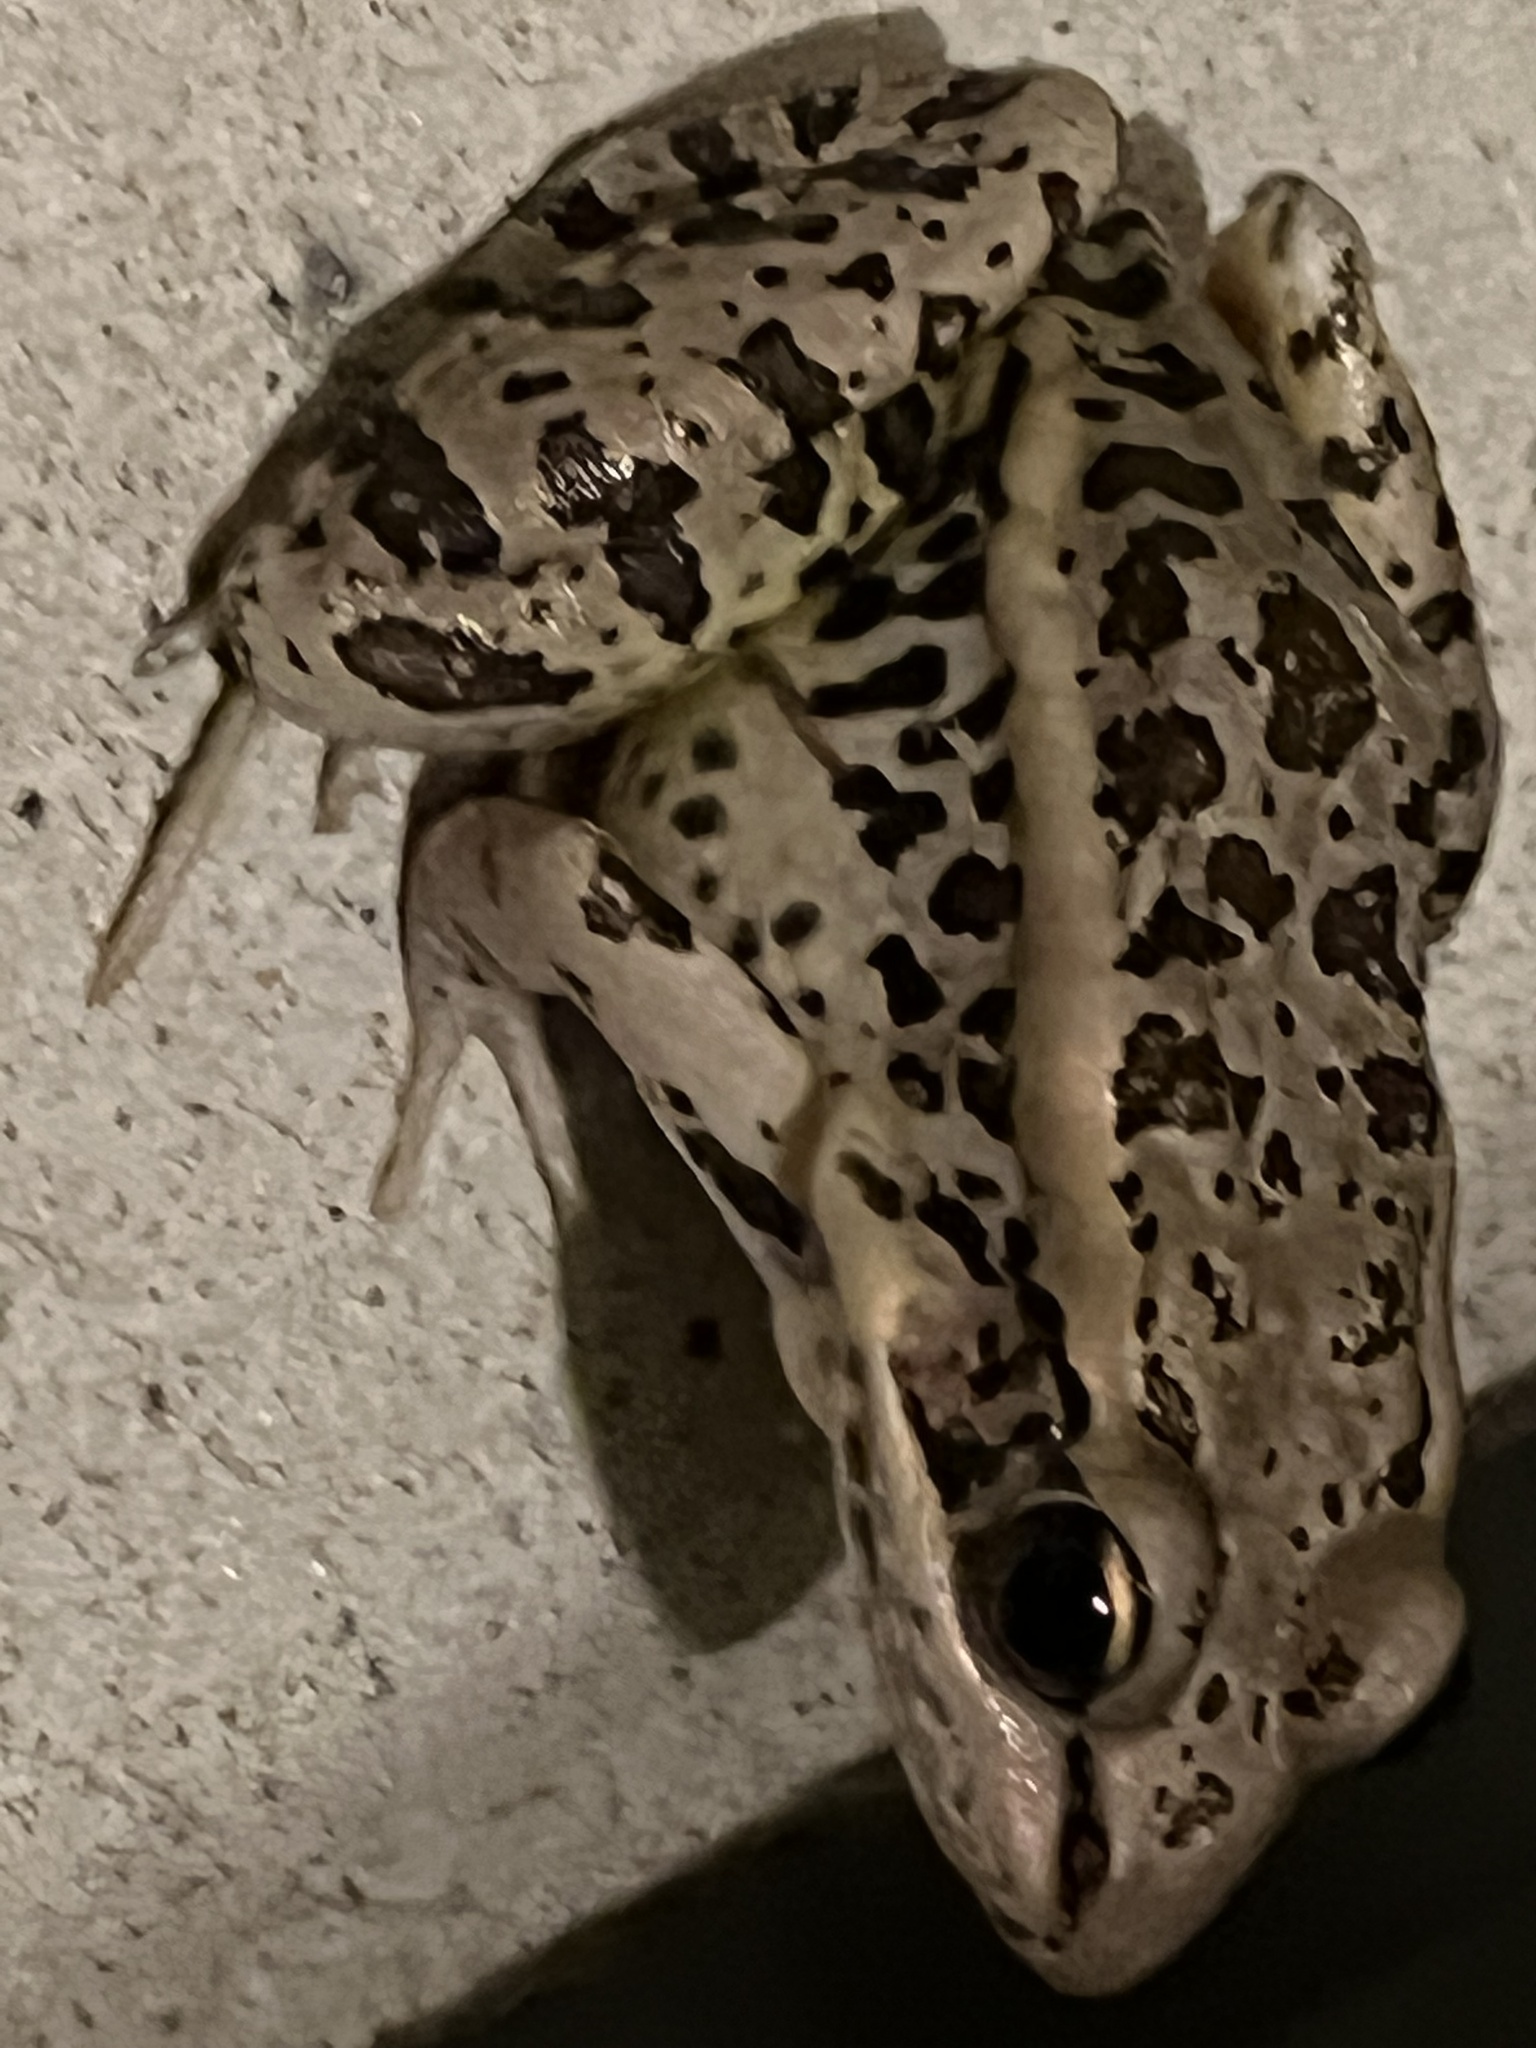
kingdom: Animalia
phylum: Chordata
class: Amphibia
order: Anura
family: Ranidae
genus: Lithobates
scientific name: Lithobates palustris
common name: Pickerel frog
